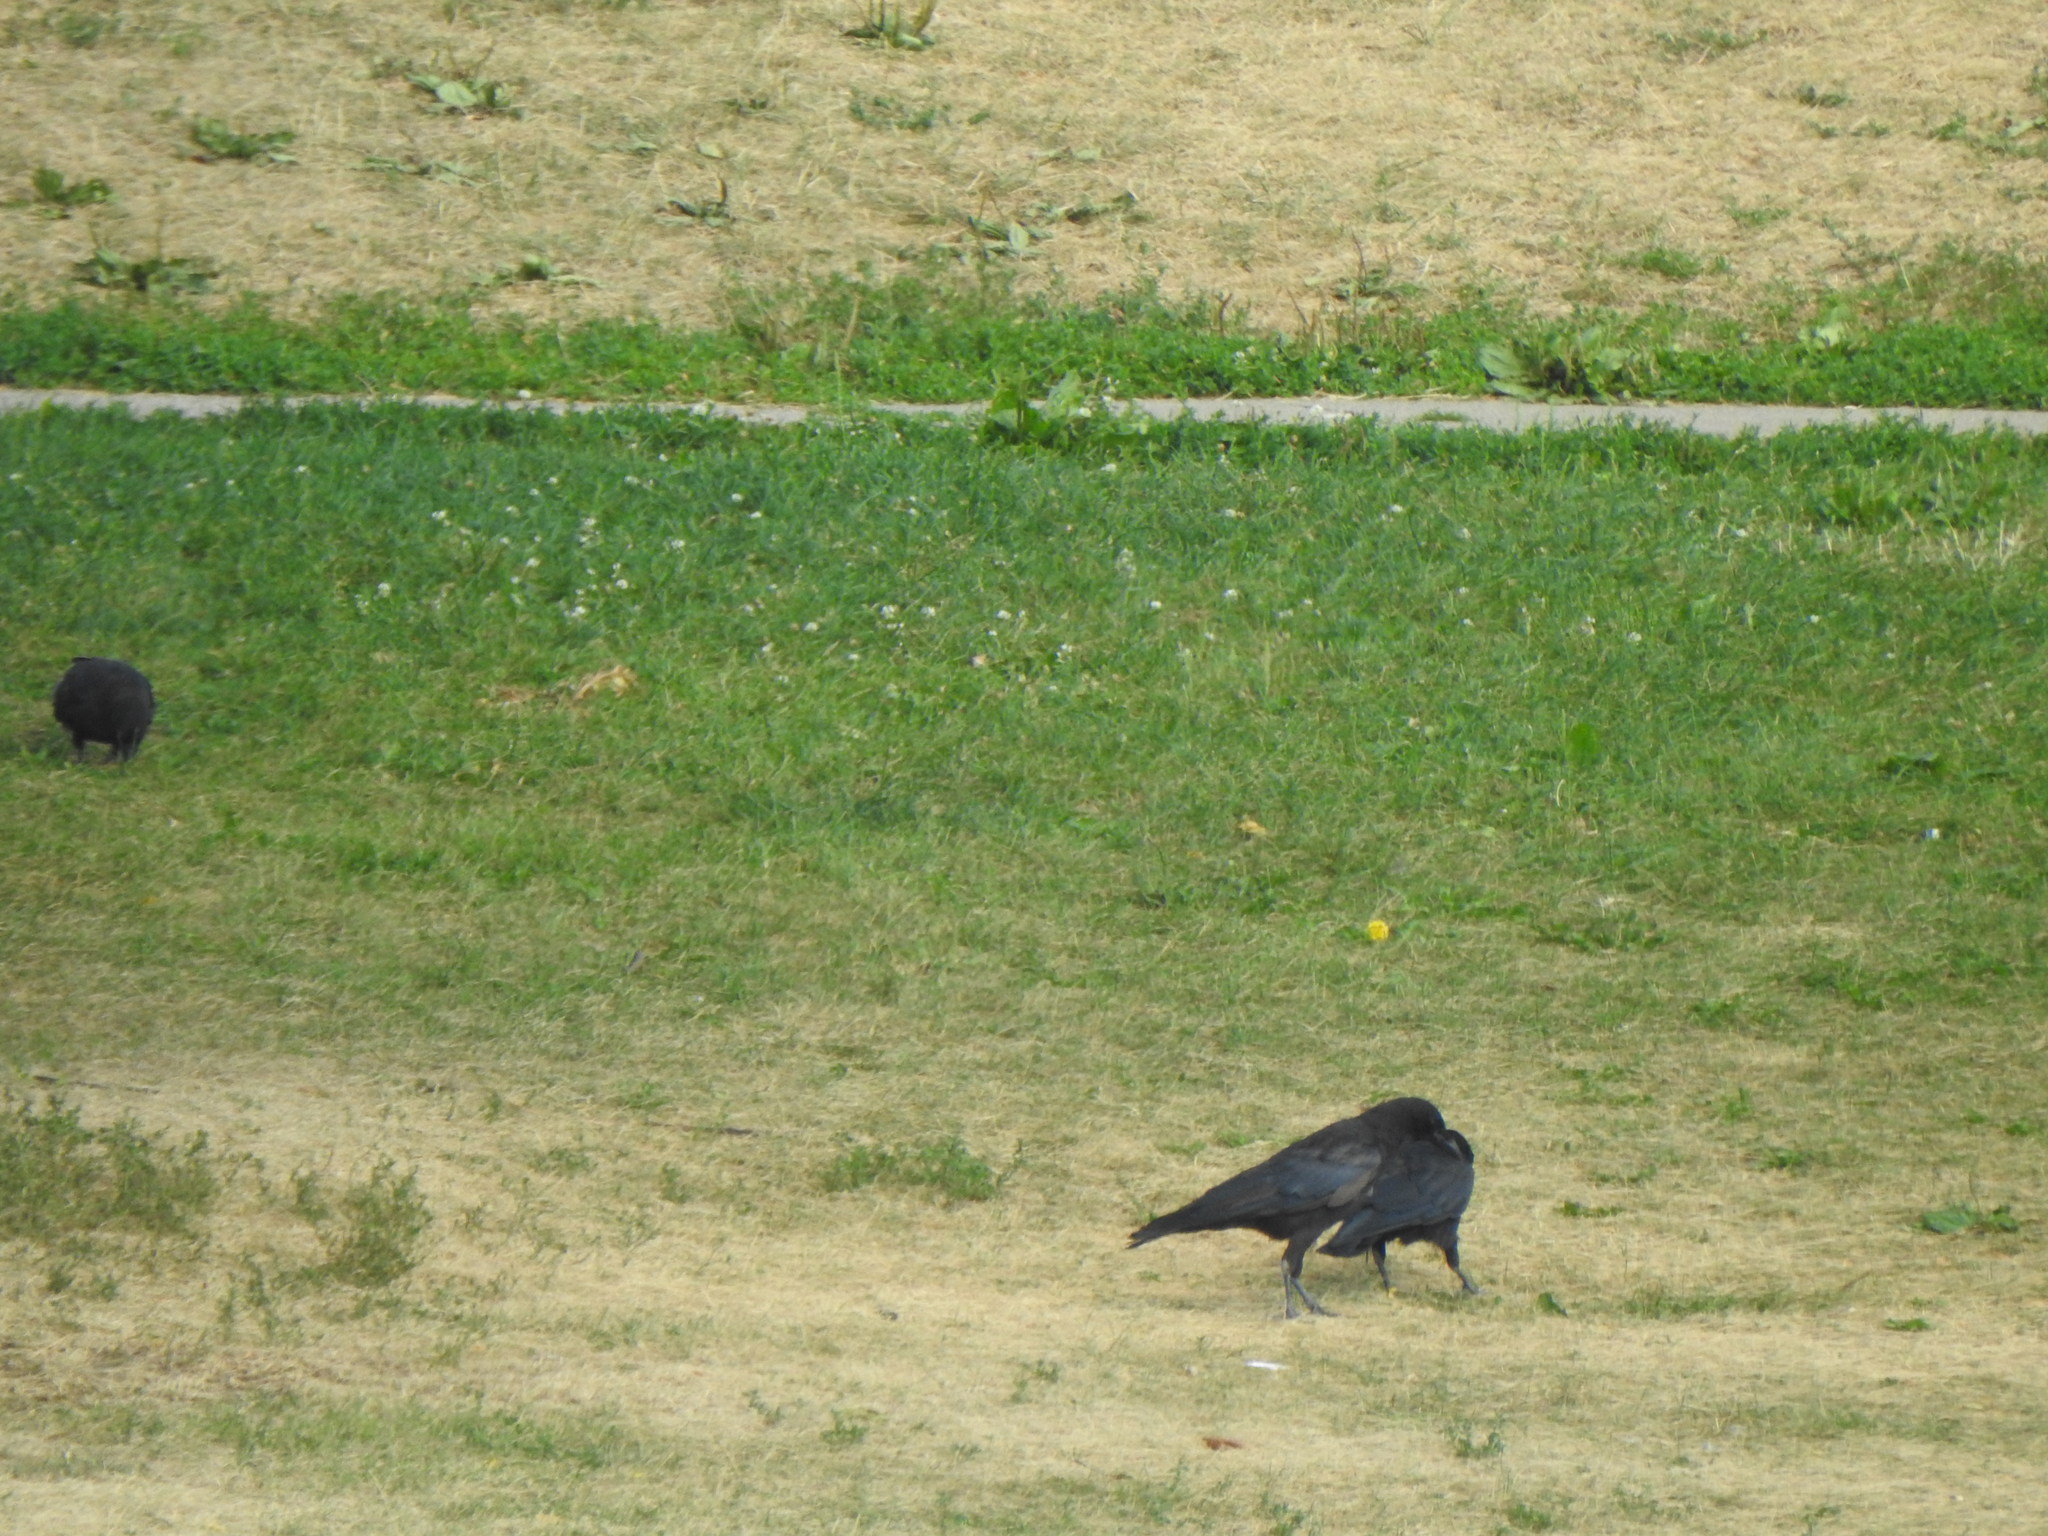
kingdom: Animalia
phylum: Chordata
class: Aves
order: Passeriformes
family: Corvidae
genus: Corvus
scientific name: Corvus brachyrhynchos
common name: American crow
